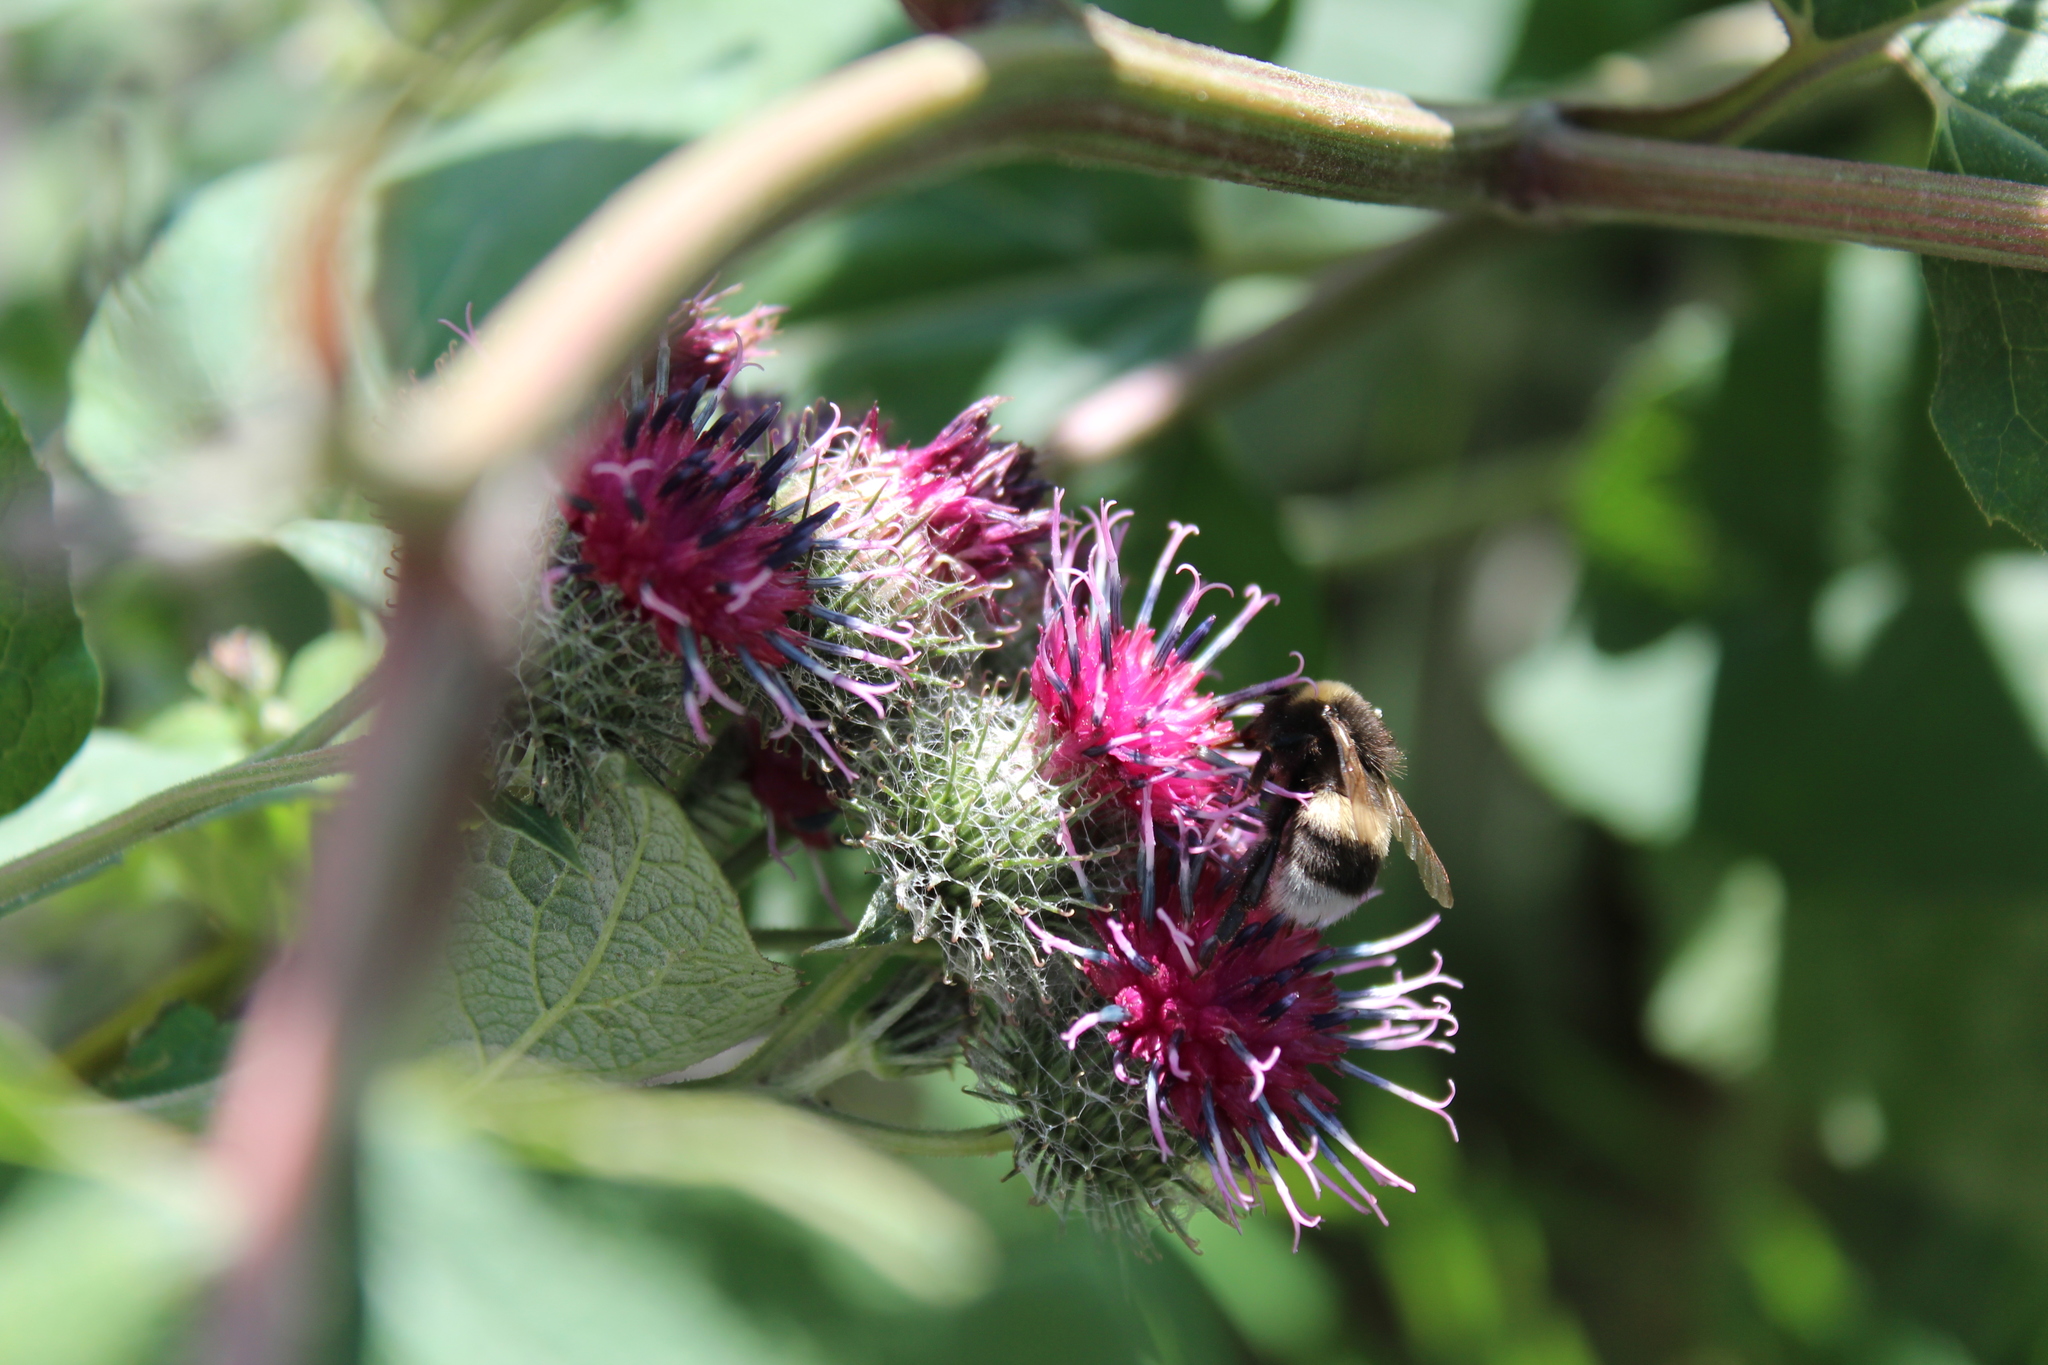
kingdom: Animalia
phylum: Arthropoda
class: Insecta
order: Hymenoptera
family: Apidae
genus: Bombus
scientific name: Bombus
